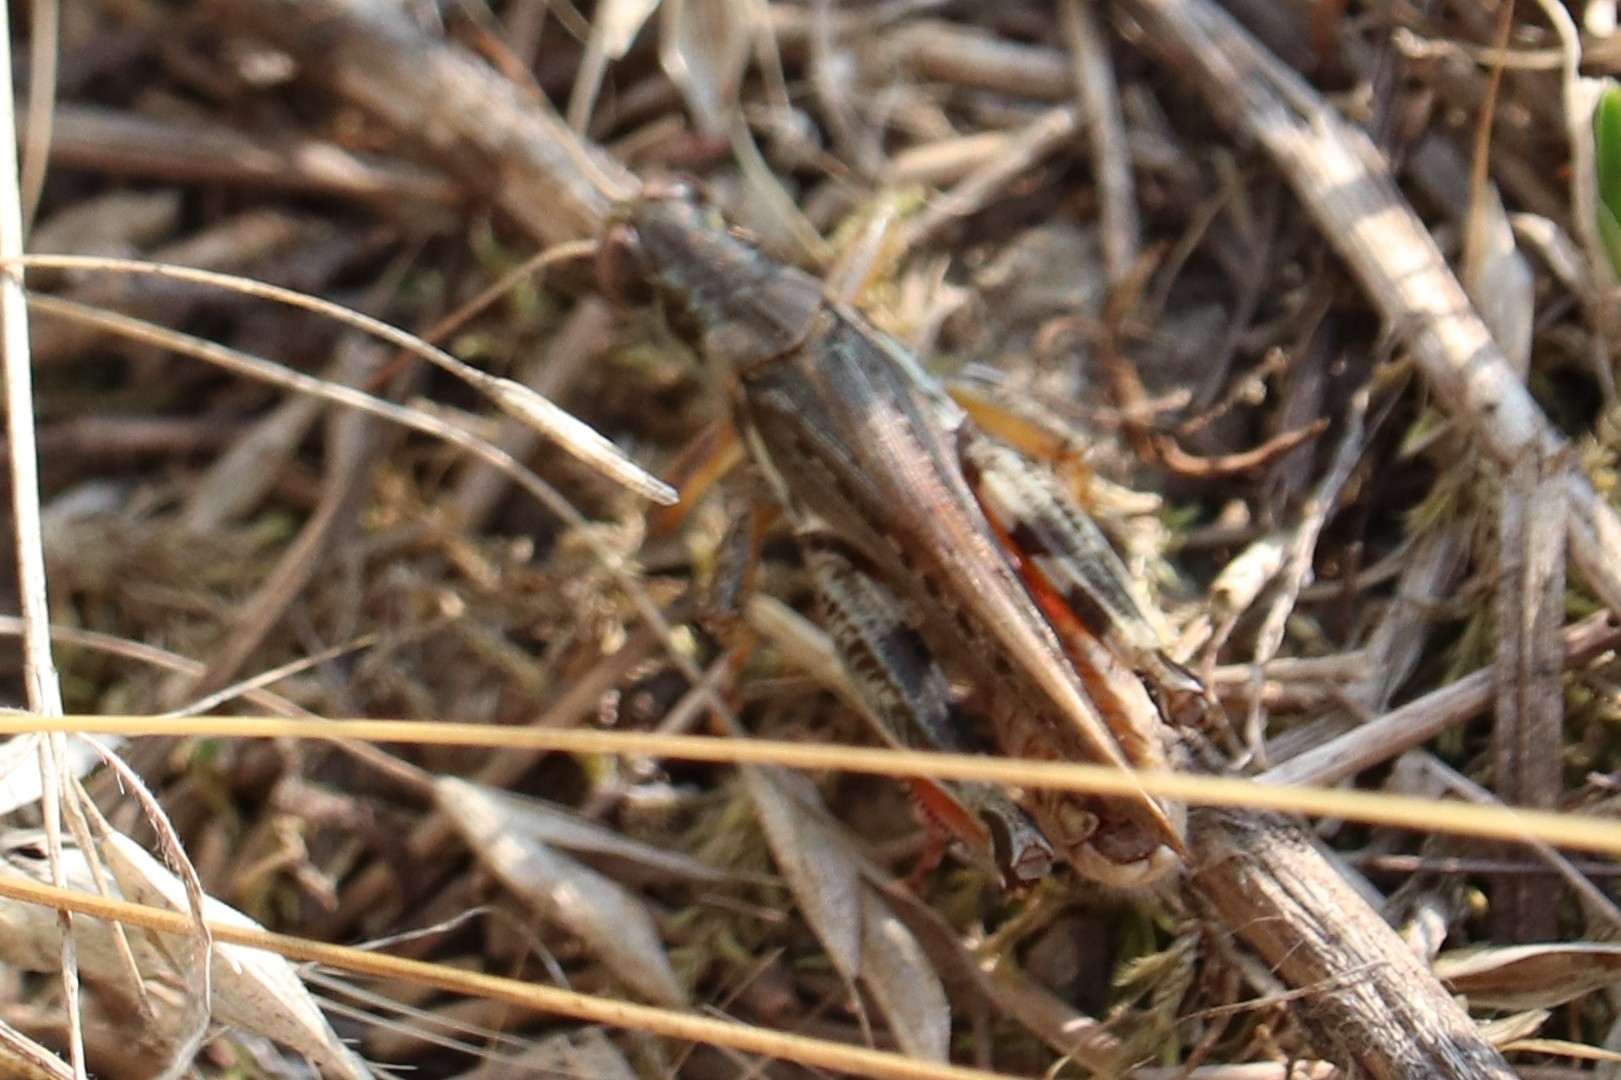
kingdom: Animalia
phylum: Arthropoda
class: Insecta
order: Orthoptera
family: Acrididae
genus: Melanoplus
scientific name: Melanoplus sanguinipes
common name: Migratory grasshopper
